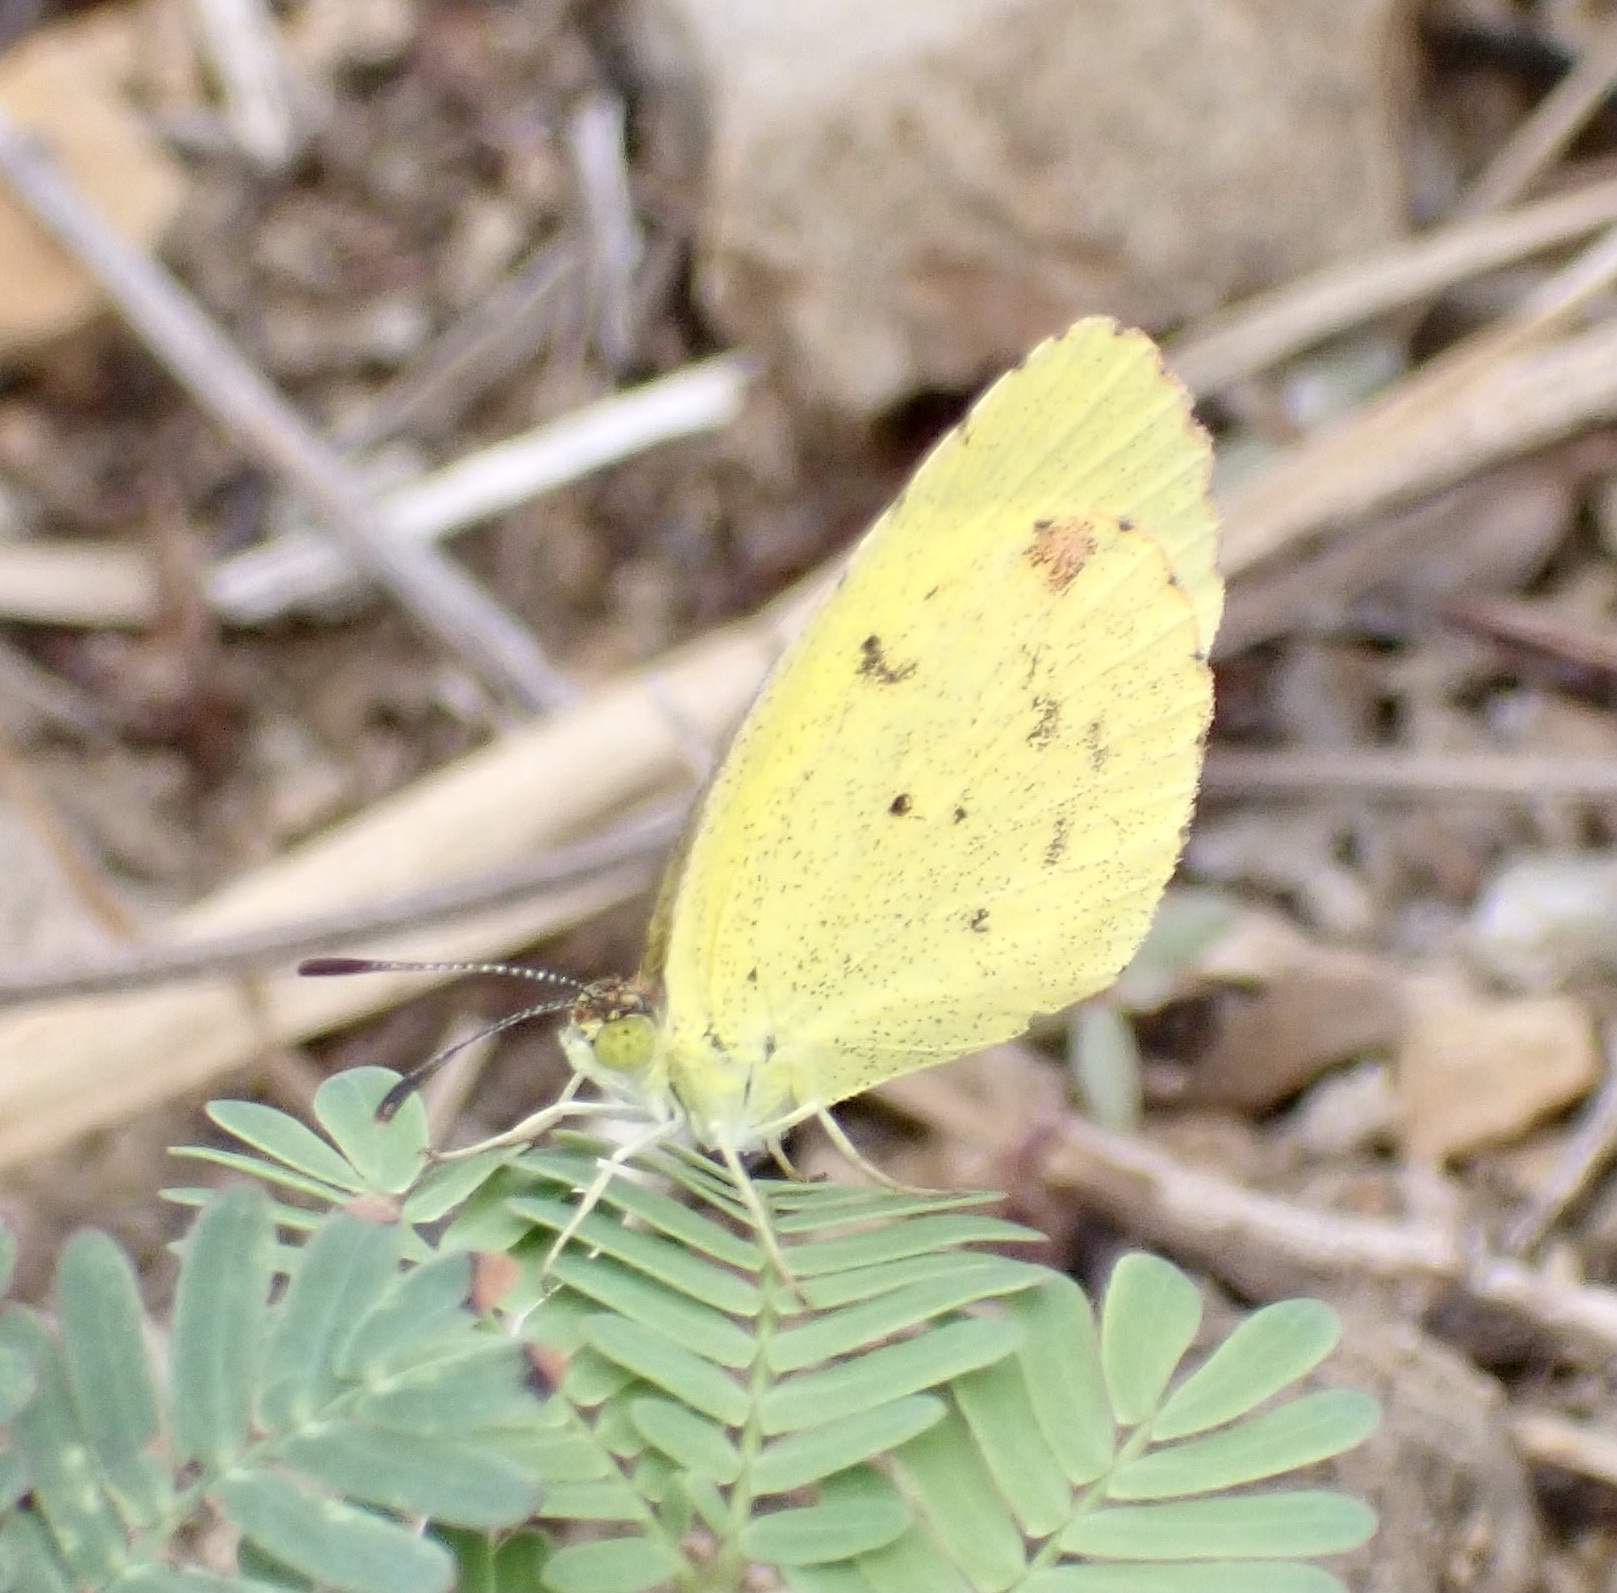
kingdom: Animalia
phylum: Arthropoda
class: Insecta
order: Lepidoptera
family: Pieridae
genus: Pyrisitia
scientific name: Pyrisitia lisa
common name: Little yellow
